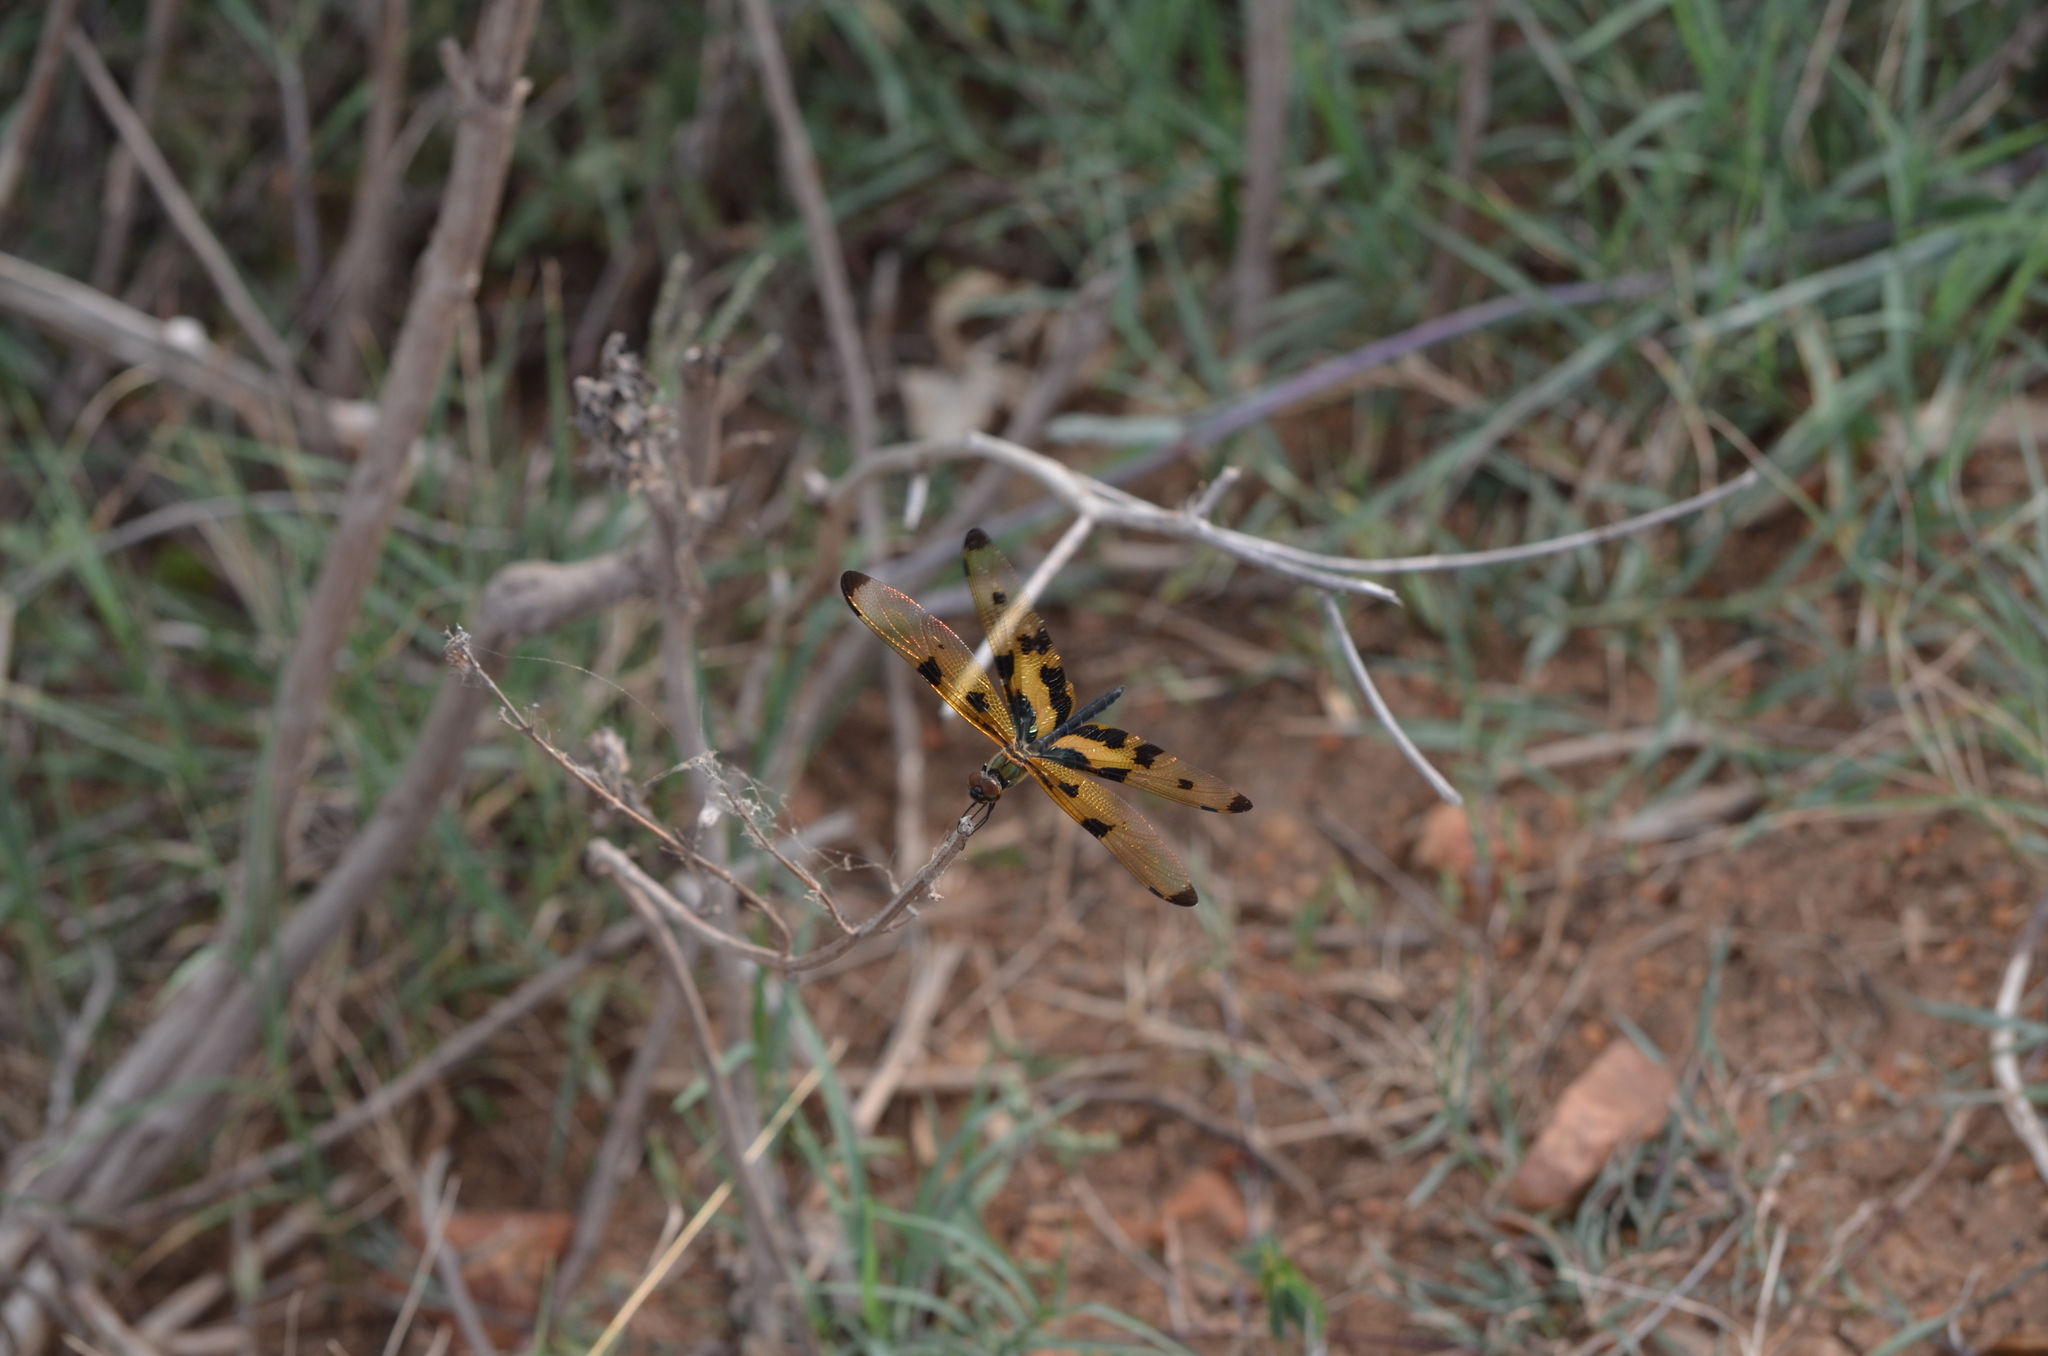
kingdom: Animalia
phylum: Arthropoda
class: Insecta
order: Odonata
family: Libellulidae
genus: Rhyothemis
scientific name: Rhyothemis variegata
